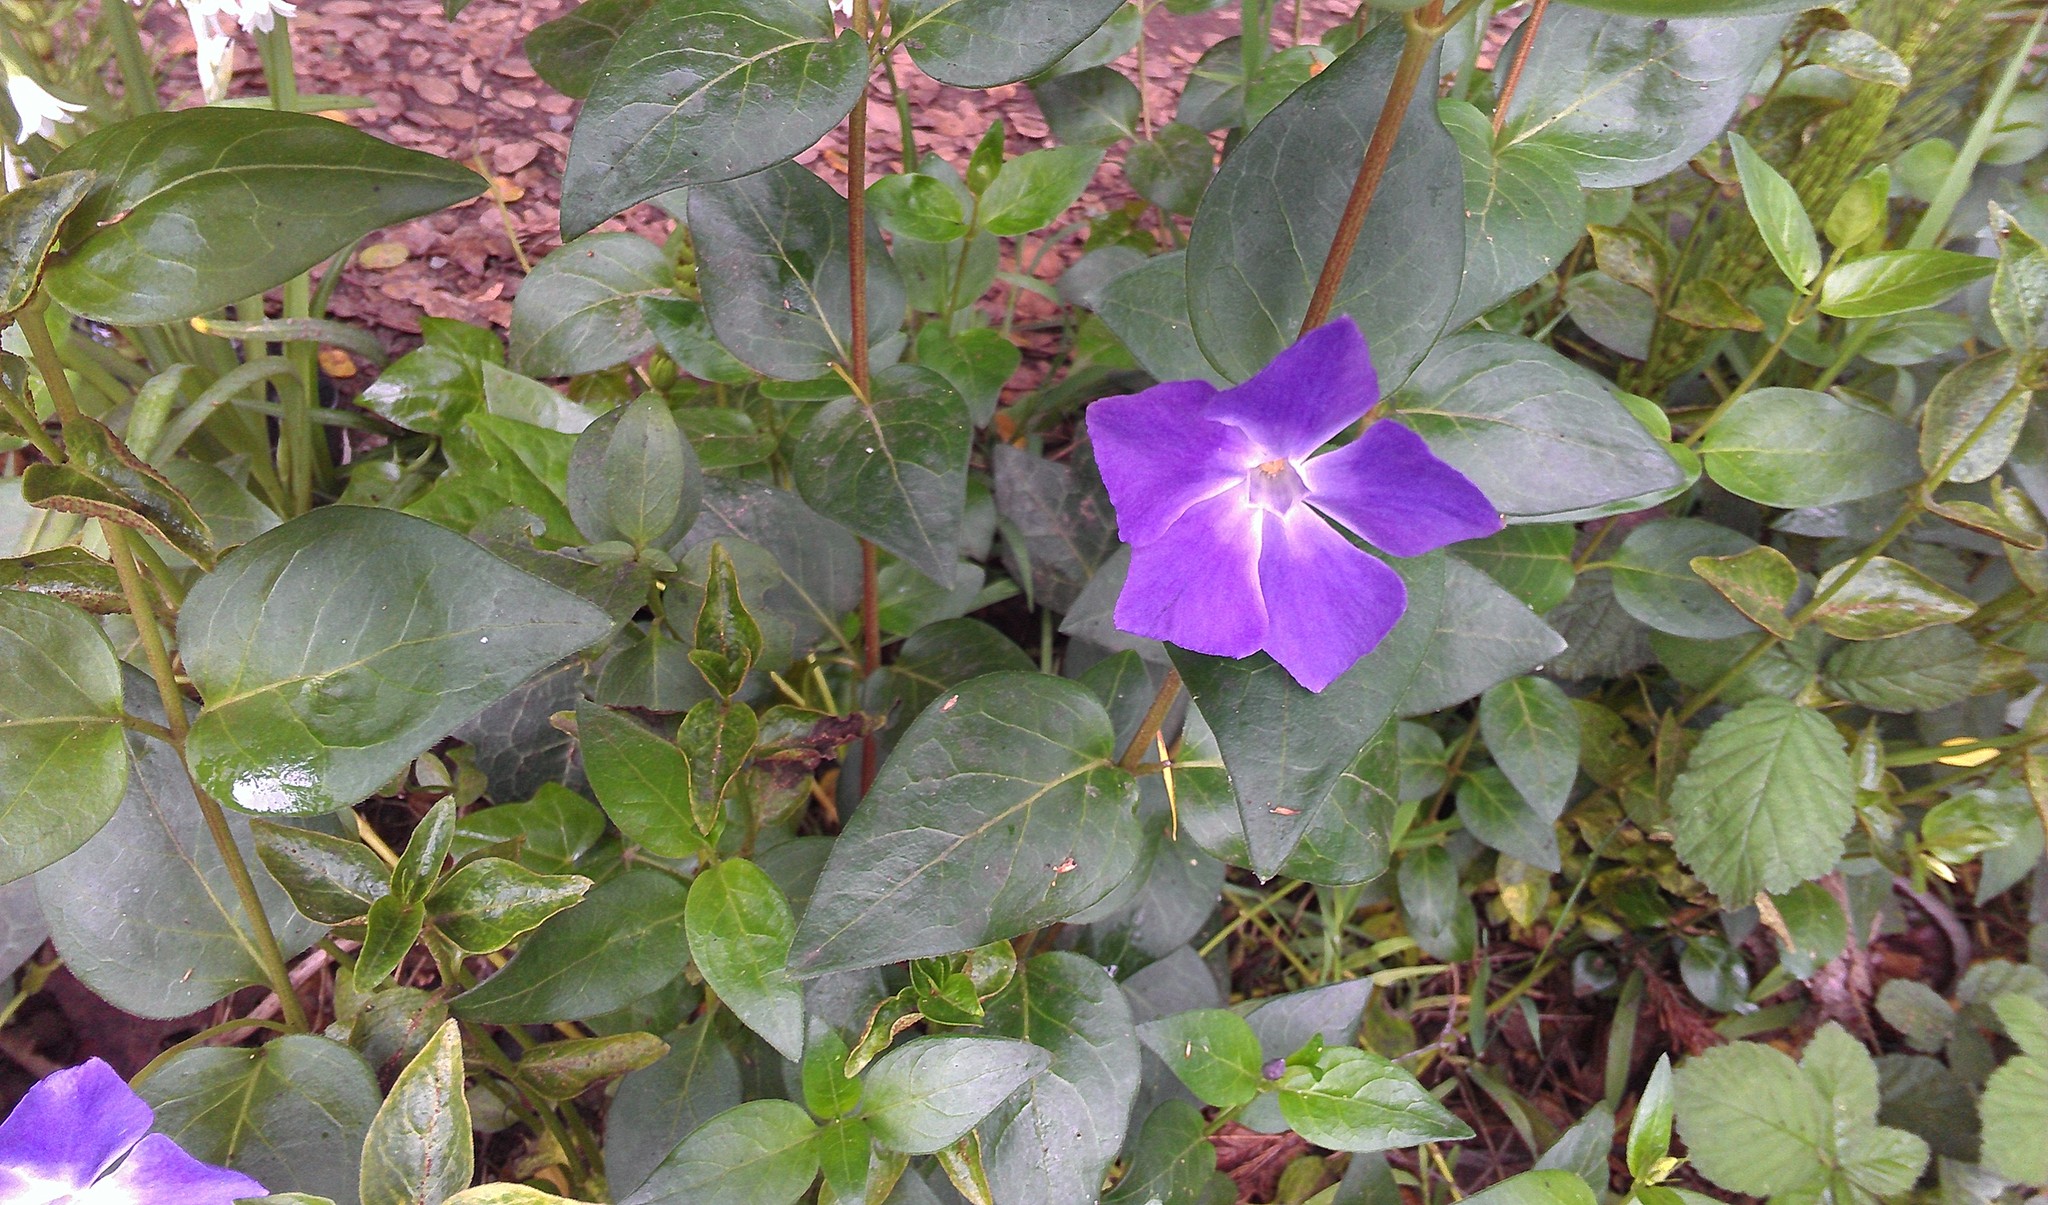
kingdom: Plantae
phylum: Tracheophyta
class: Magnoliopsida
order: Gentianales
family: Apocynaceae
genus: Vinca
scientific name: Vinca major
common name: Greater periwinkle
